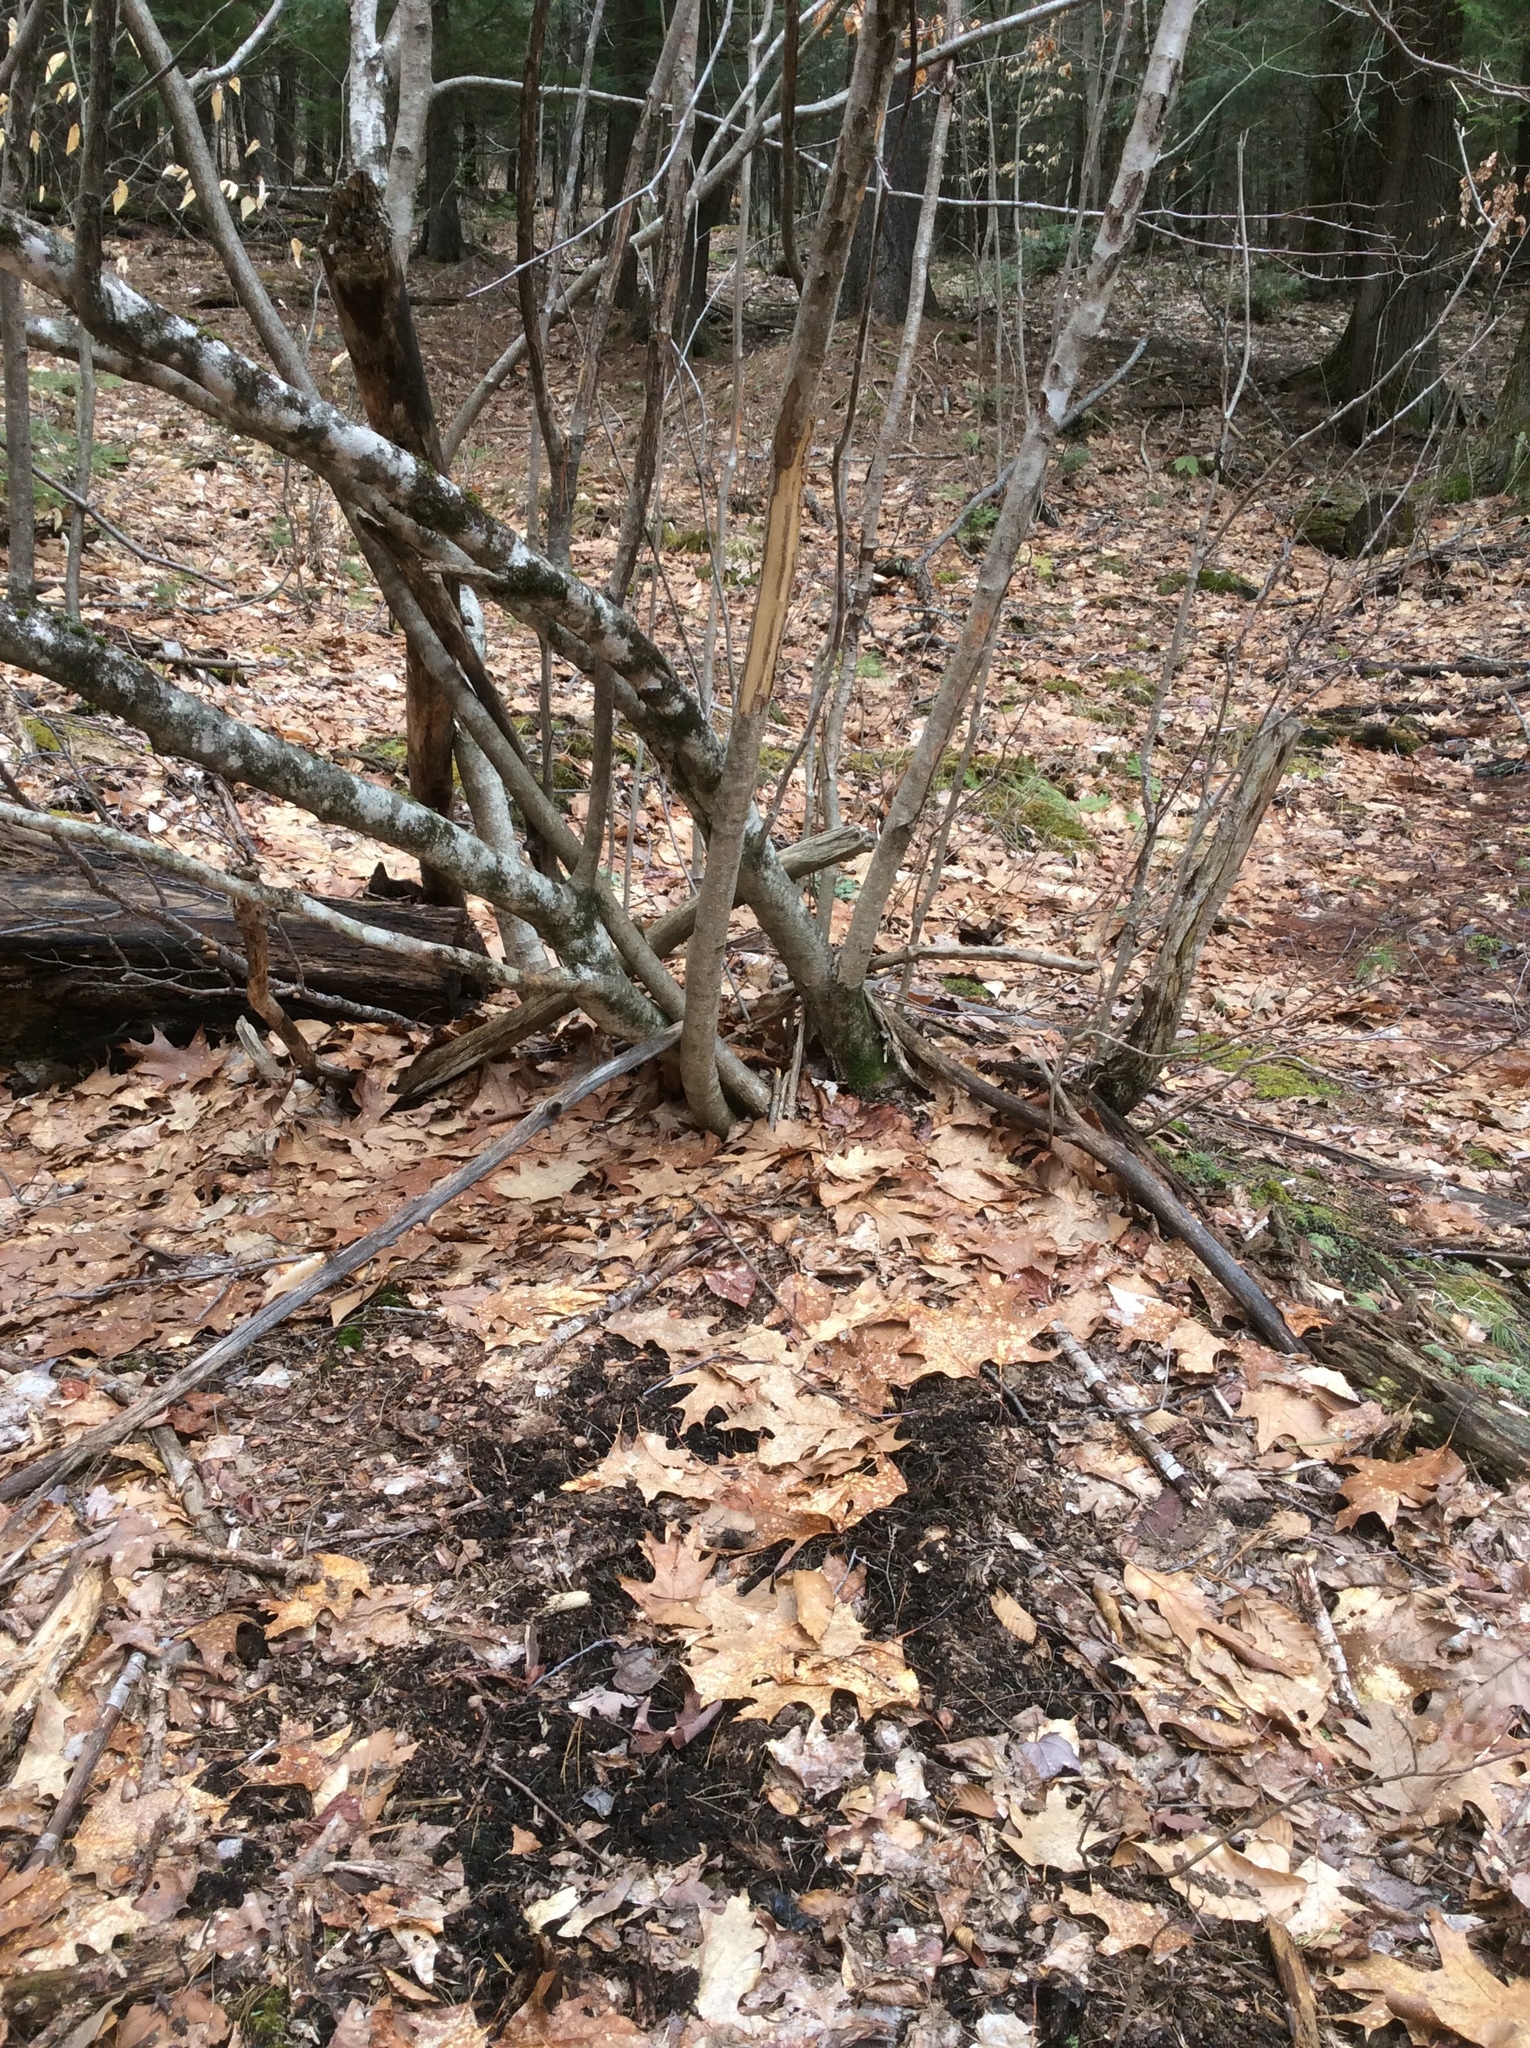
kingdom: Animalia
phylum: Chordata
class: Mammalia
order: Artiodactyla
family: Cervidae
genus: Odocoileus
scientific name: Odocoileus virginianus
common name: White-tailed deer
